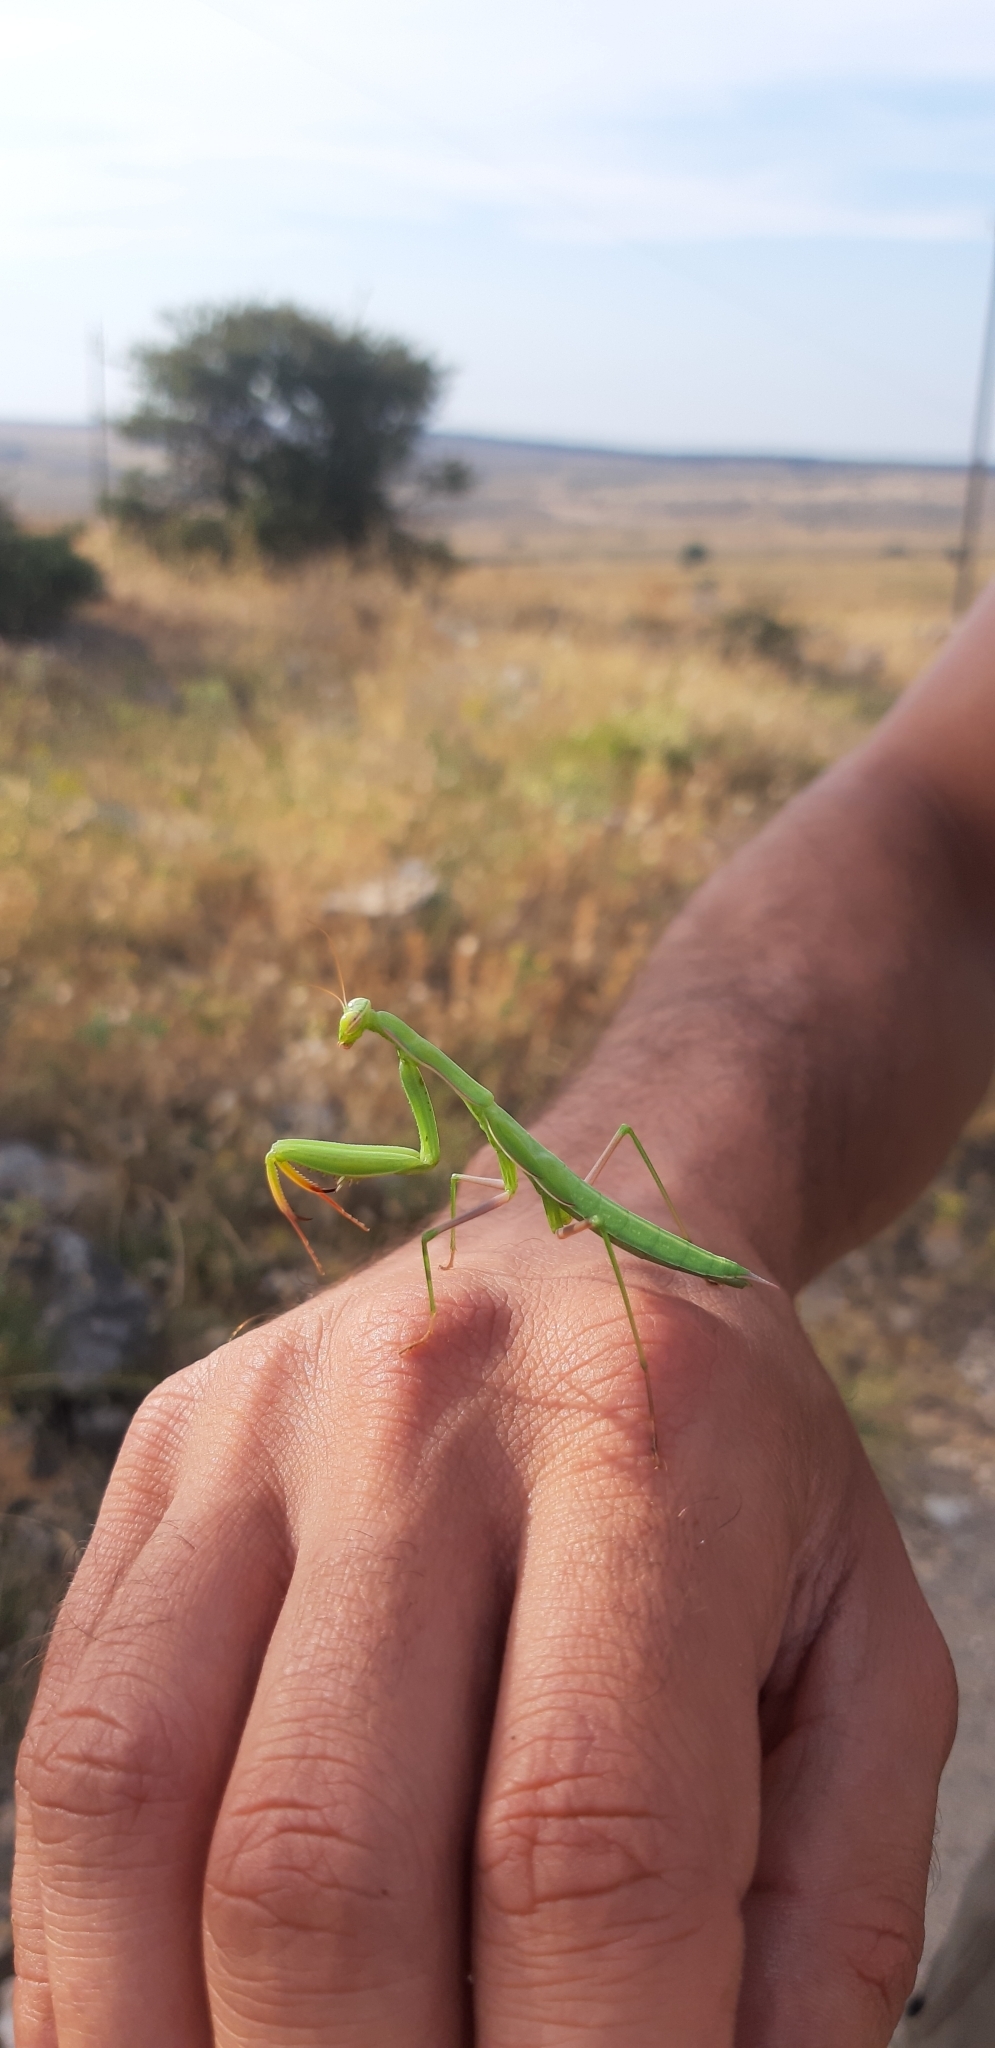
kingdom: Animalia
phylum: Arthropoda
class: Insecta
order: Mantodea
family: Mantidae
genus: Mantis
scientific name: Mantis religiosa
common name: Praying mantis
